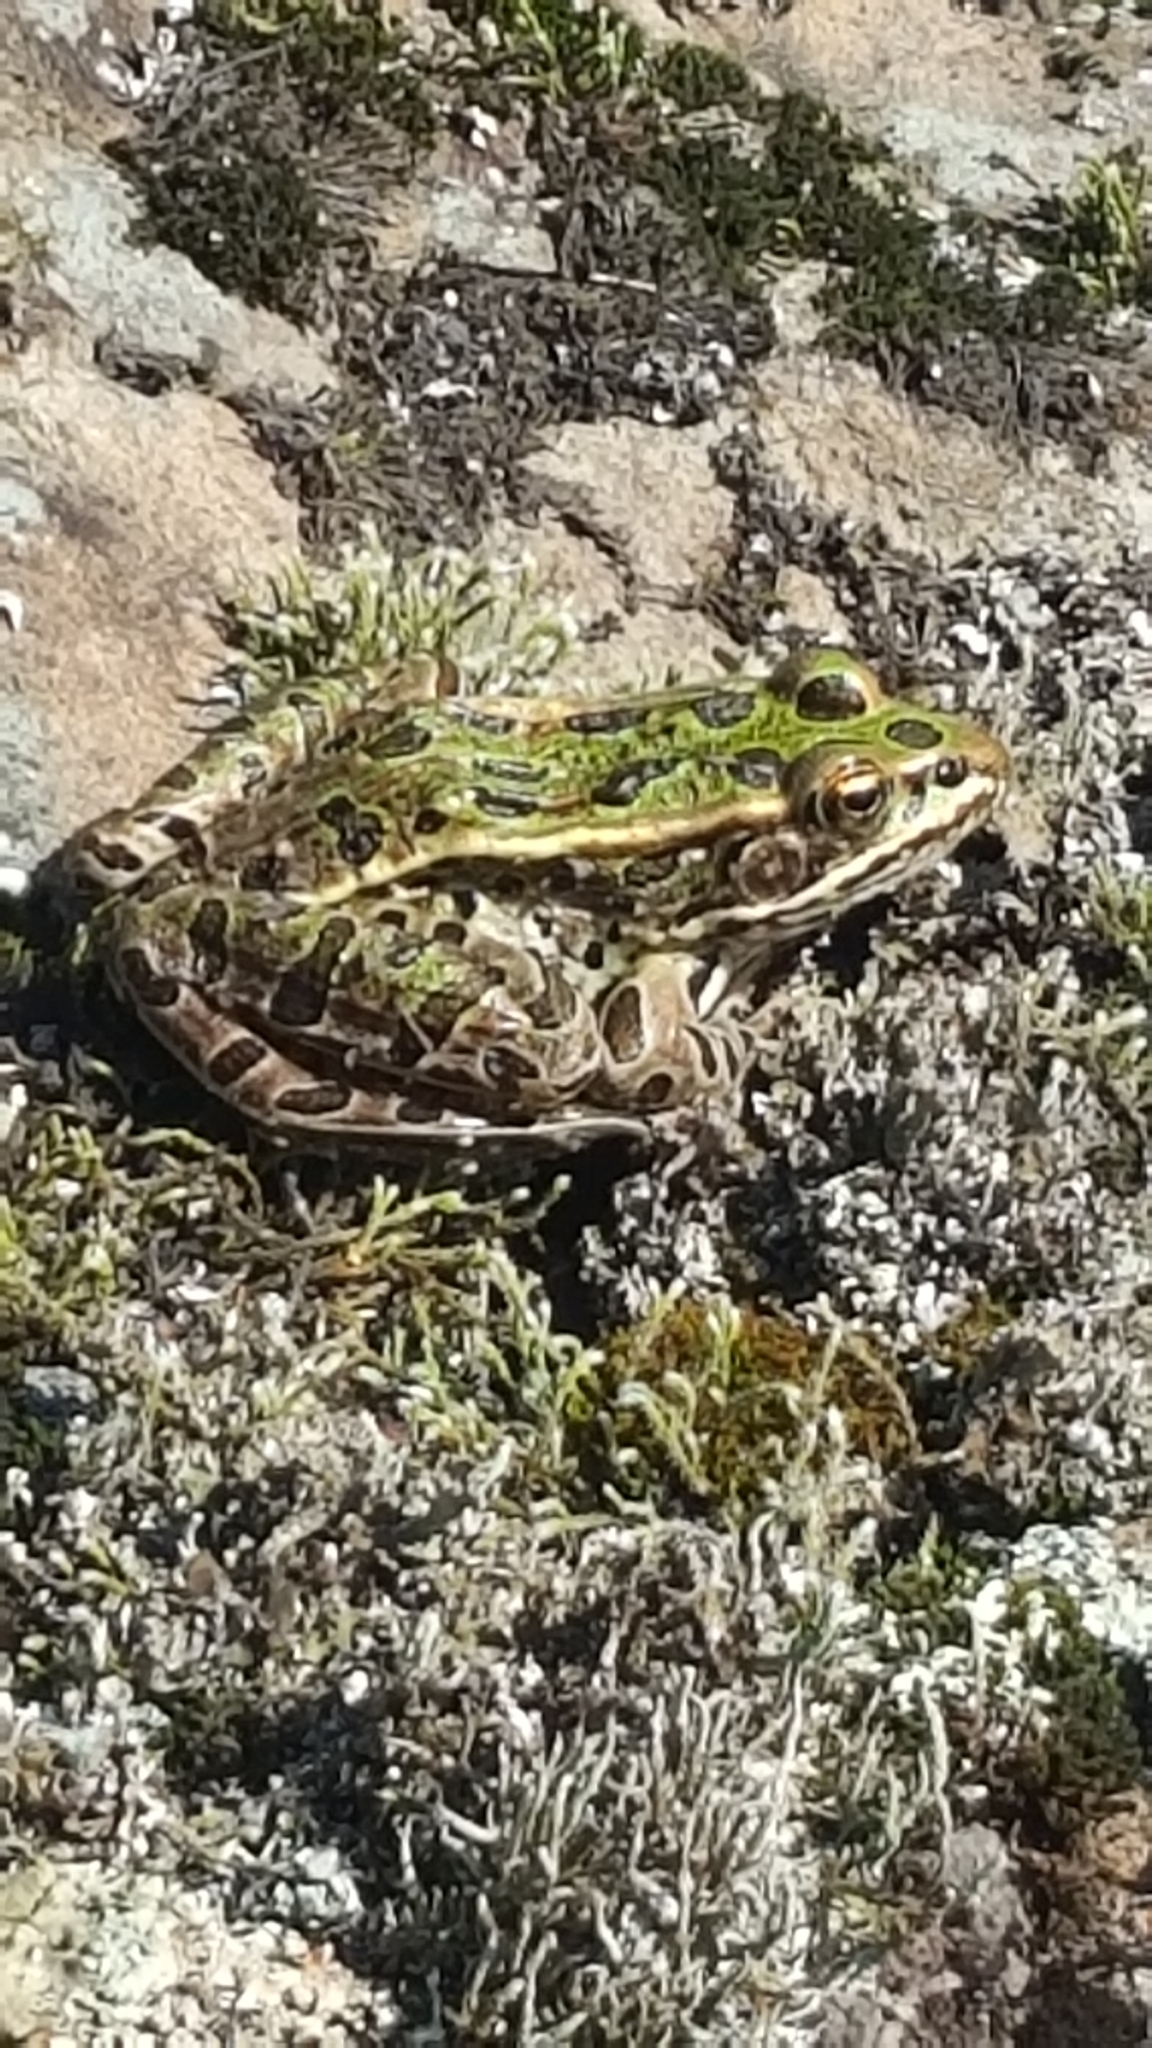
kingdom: Animalia
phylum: Chordata
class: Amphibia
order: Anura
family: Ranidae
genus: Lithobates
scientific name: Lithobates pipiens
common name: Northern leopard frog
